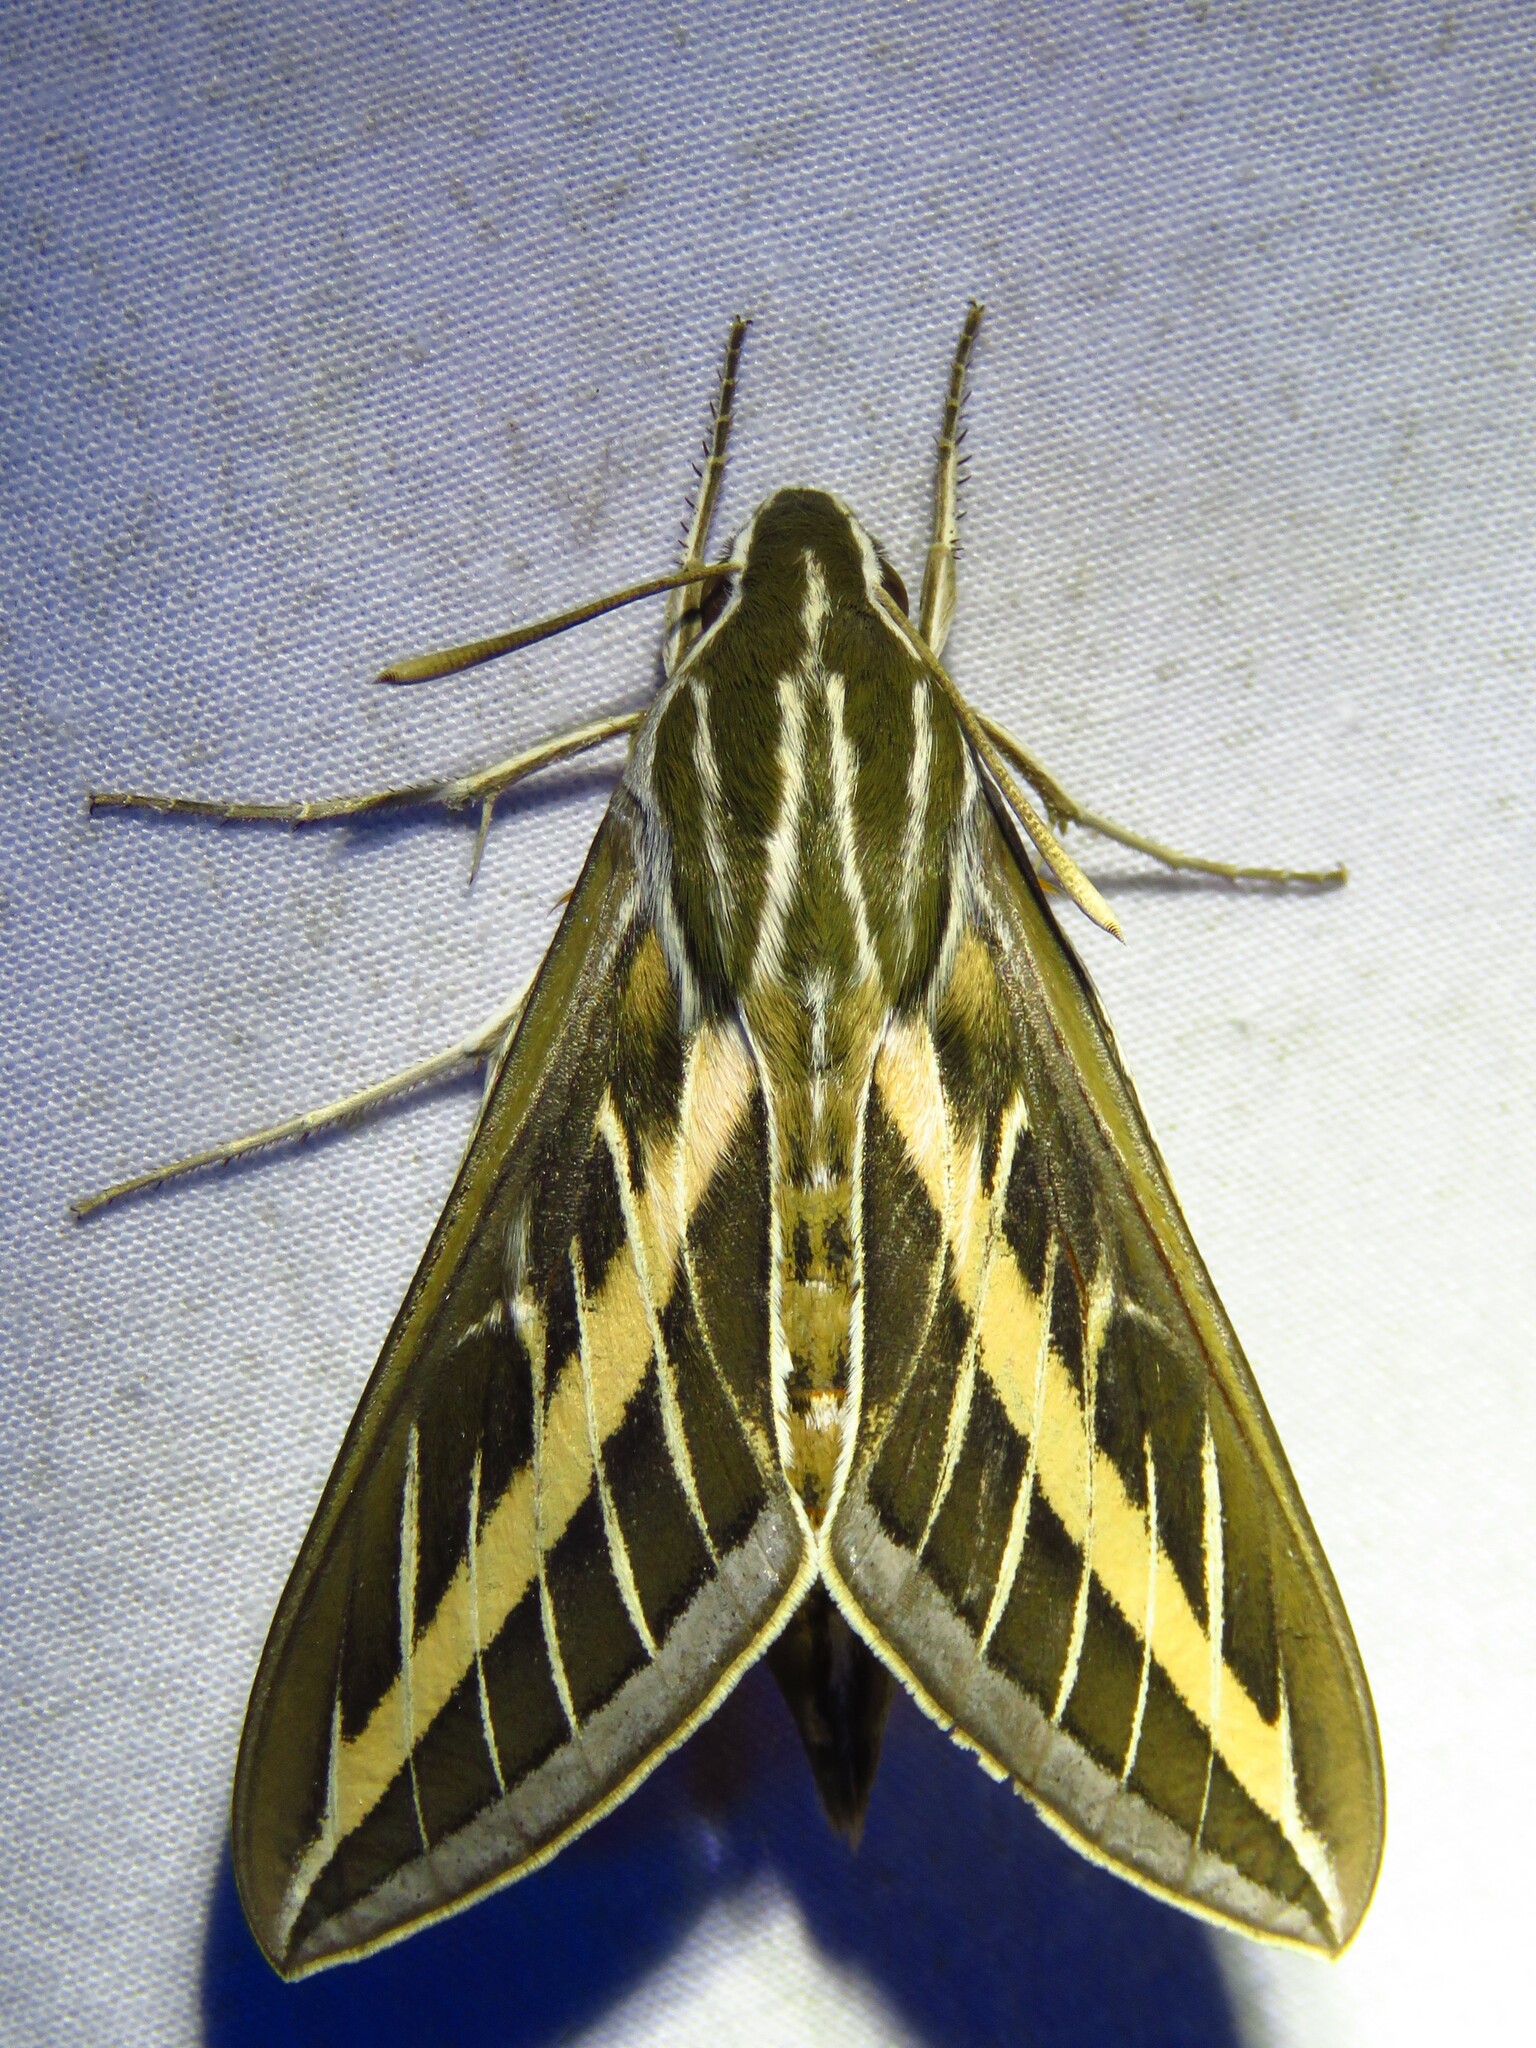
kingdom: Animalia
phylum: Arthropoda
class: Insecta
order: Lepidoptera
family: Sphingidae
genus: Hyles
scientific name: Hyles lineata
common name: White-lined sphinx
